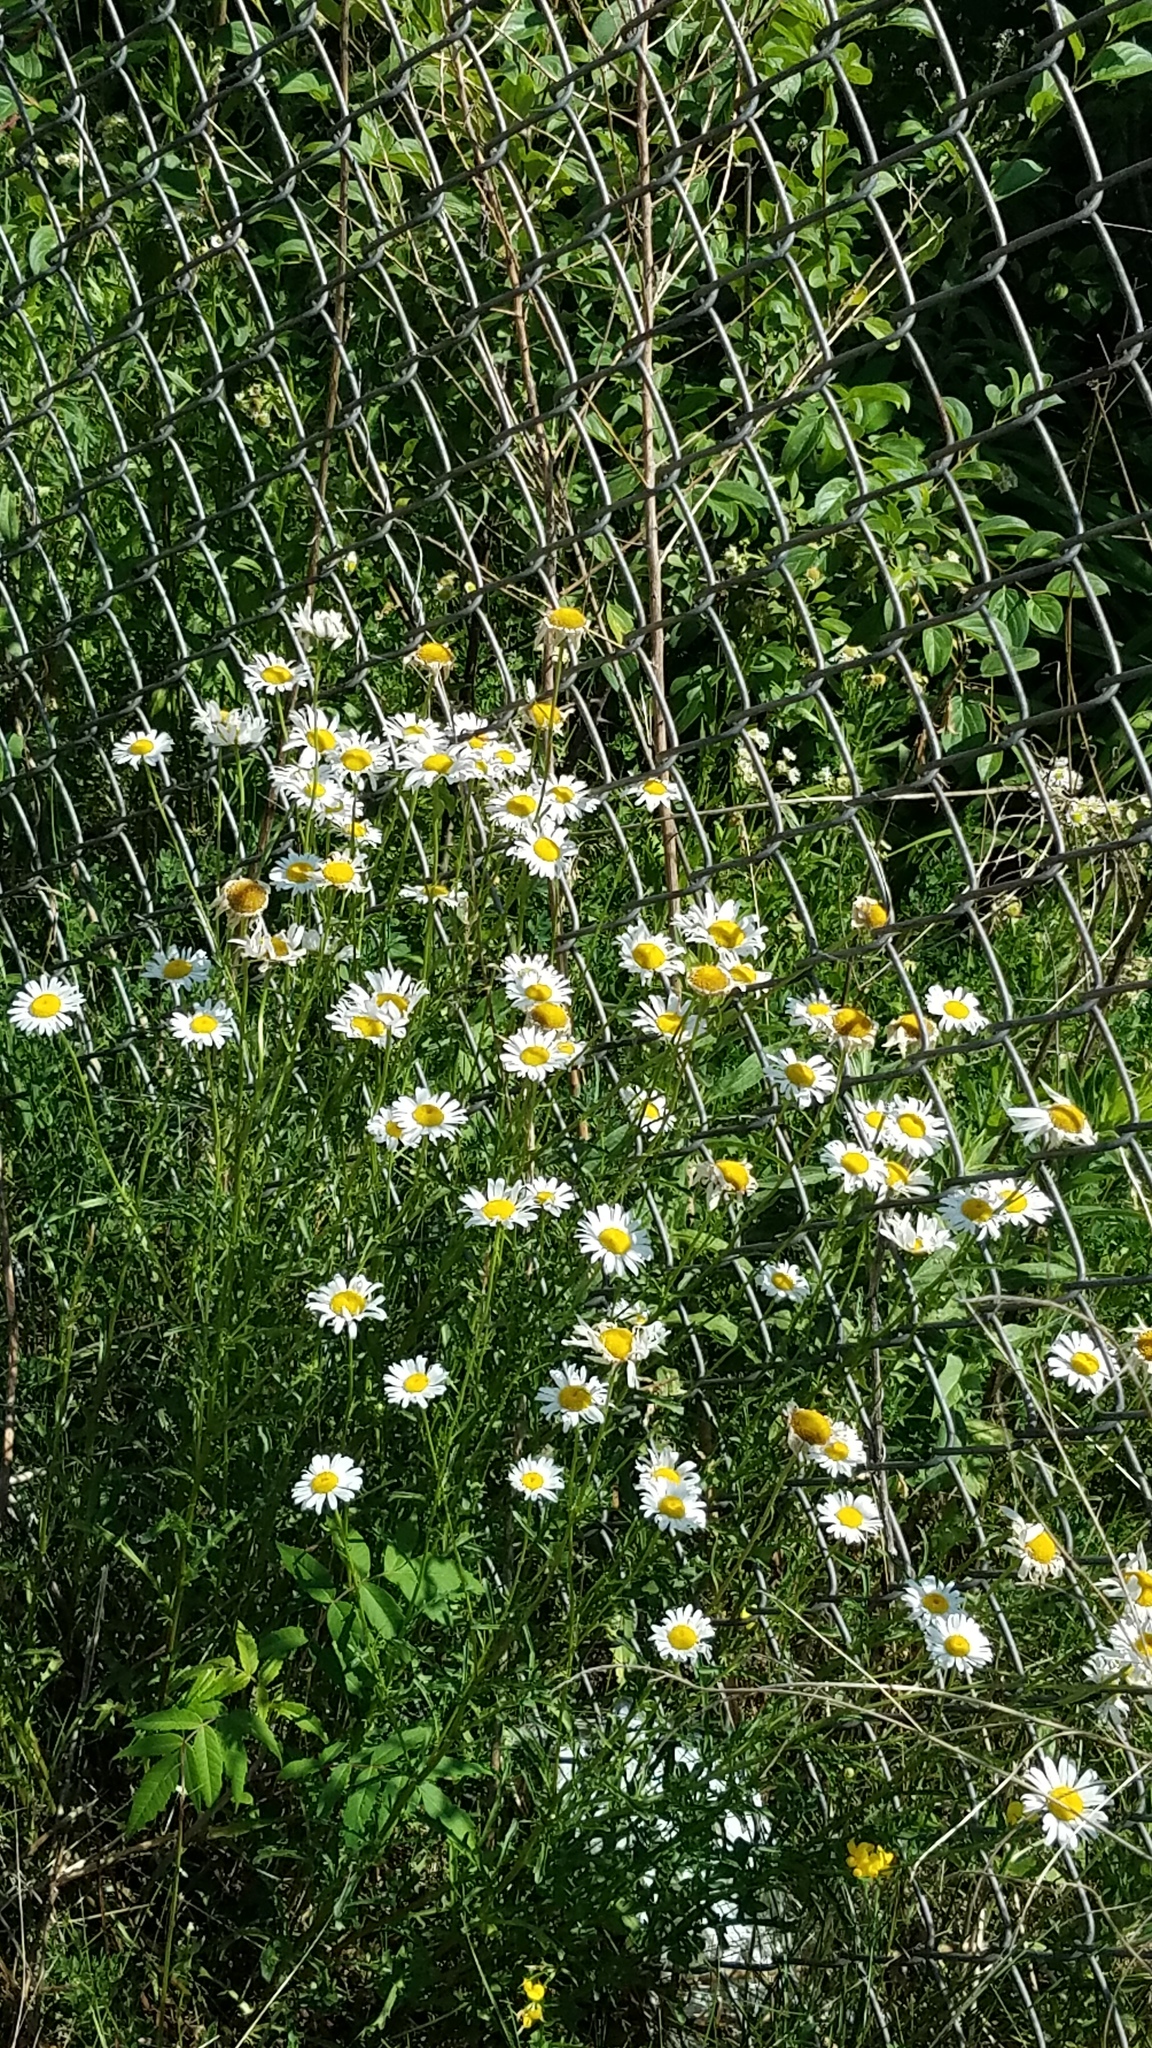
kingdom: Plantae
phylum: Tracheophyta
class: Magnoliopsida
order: Asterales
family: Asteraceae
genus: Leucanthemum
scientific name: Leucanthemum vulgare
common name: Oxeye daisy
